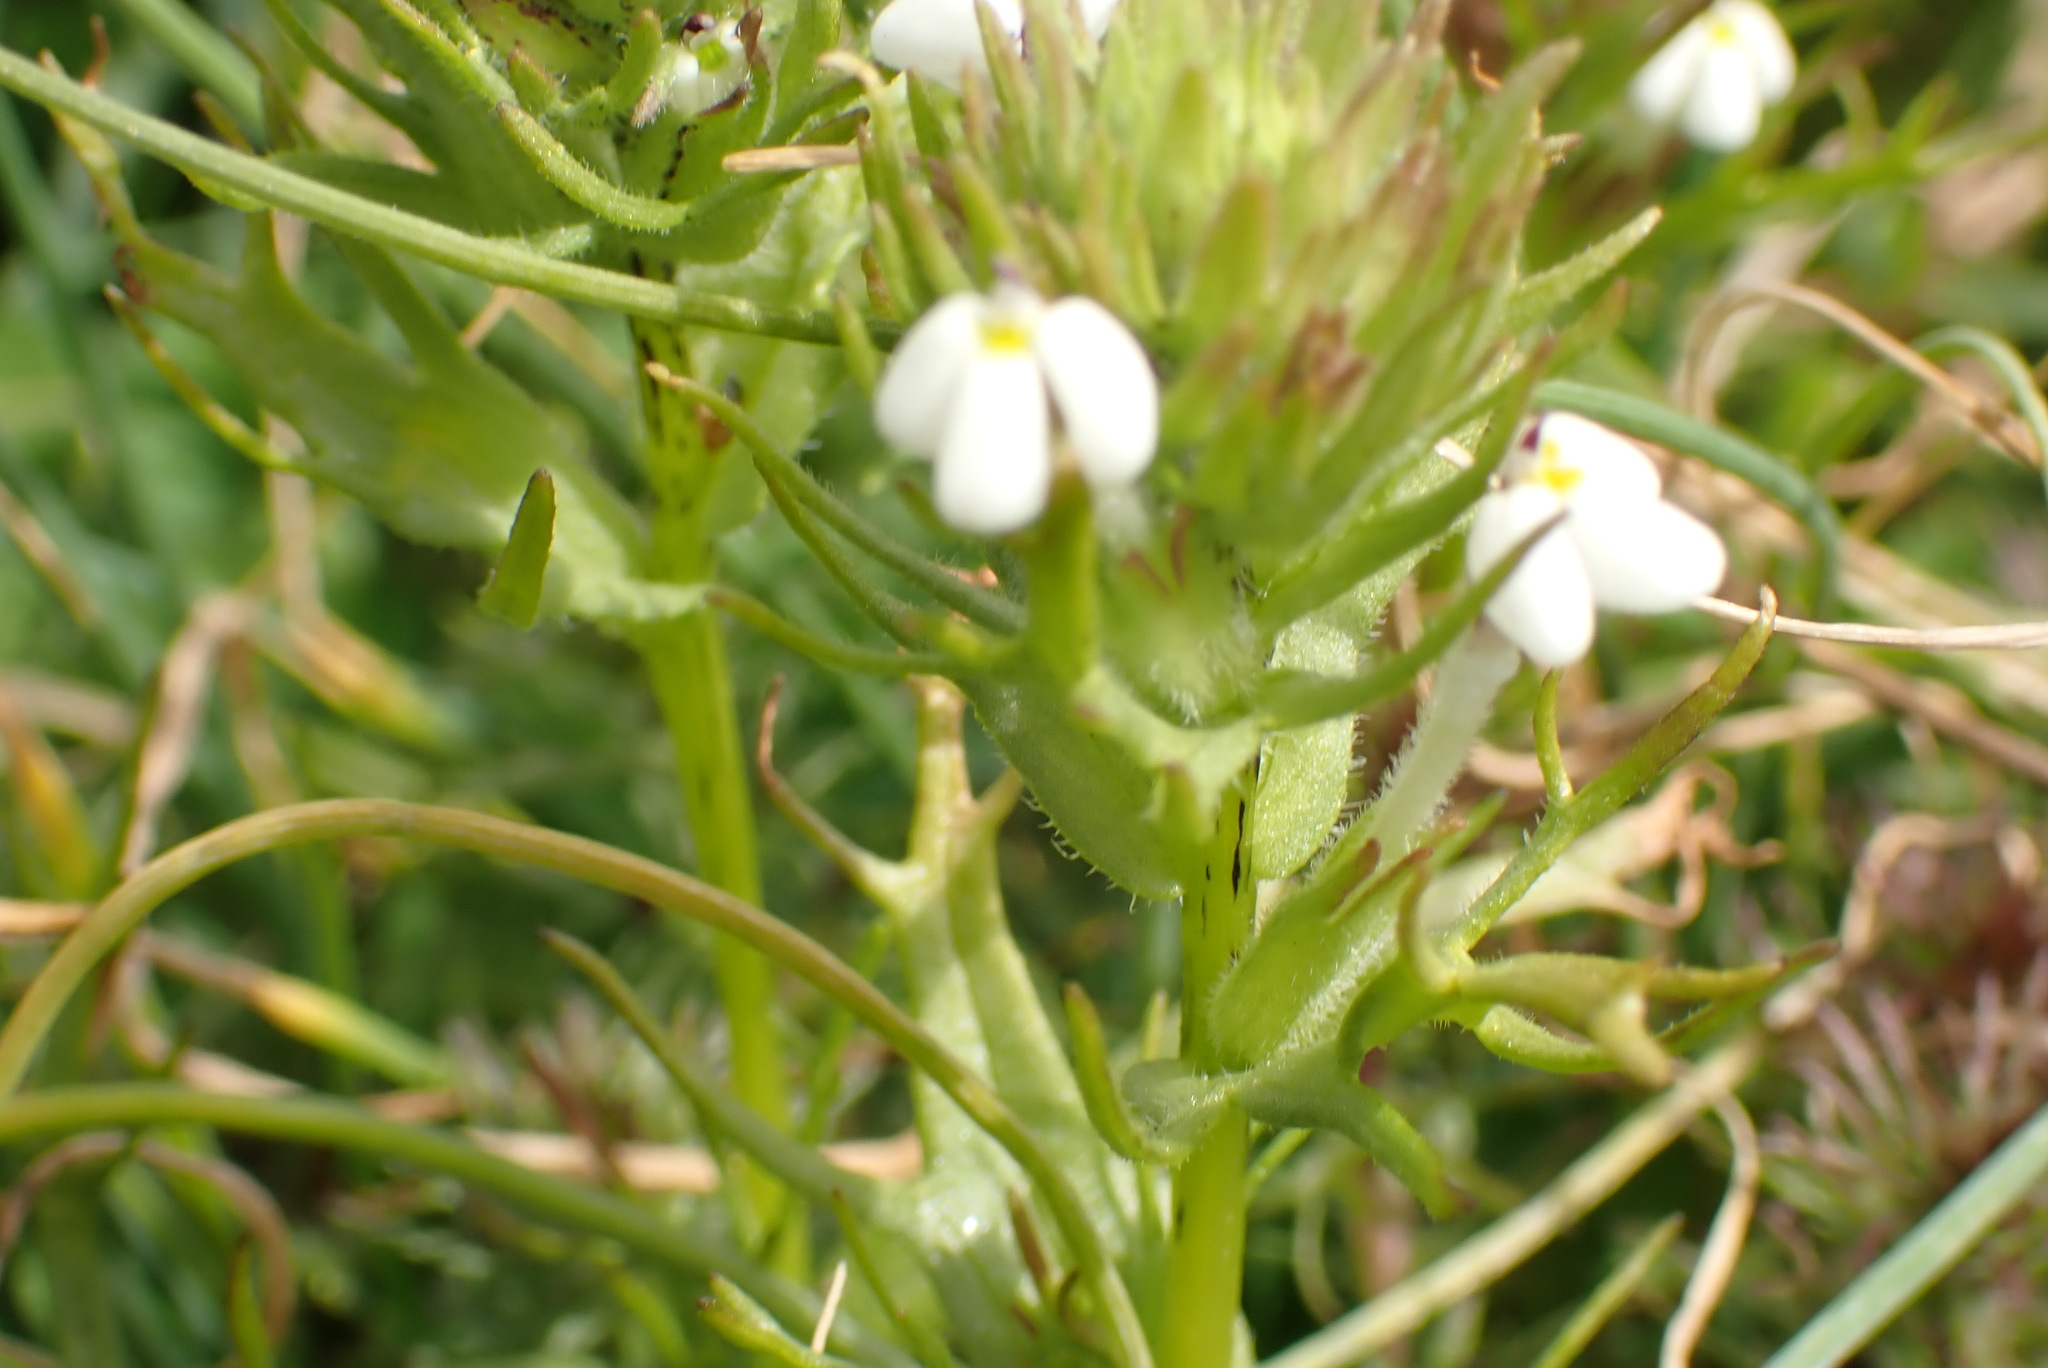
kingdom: Plantae
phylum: Tracheophyta
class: Magnoliopsida
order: Lamiales
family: Orobanchaceae
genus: Triphysaria
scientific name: Triphysaria versicolor
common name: Bearded false owl-clover
